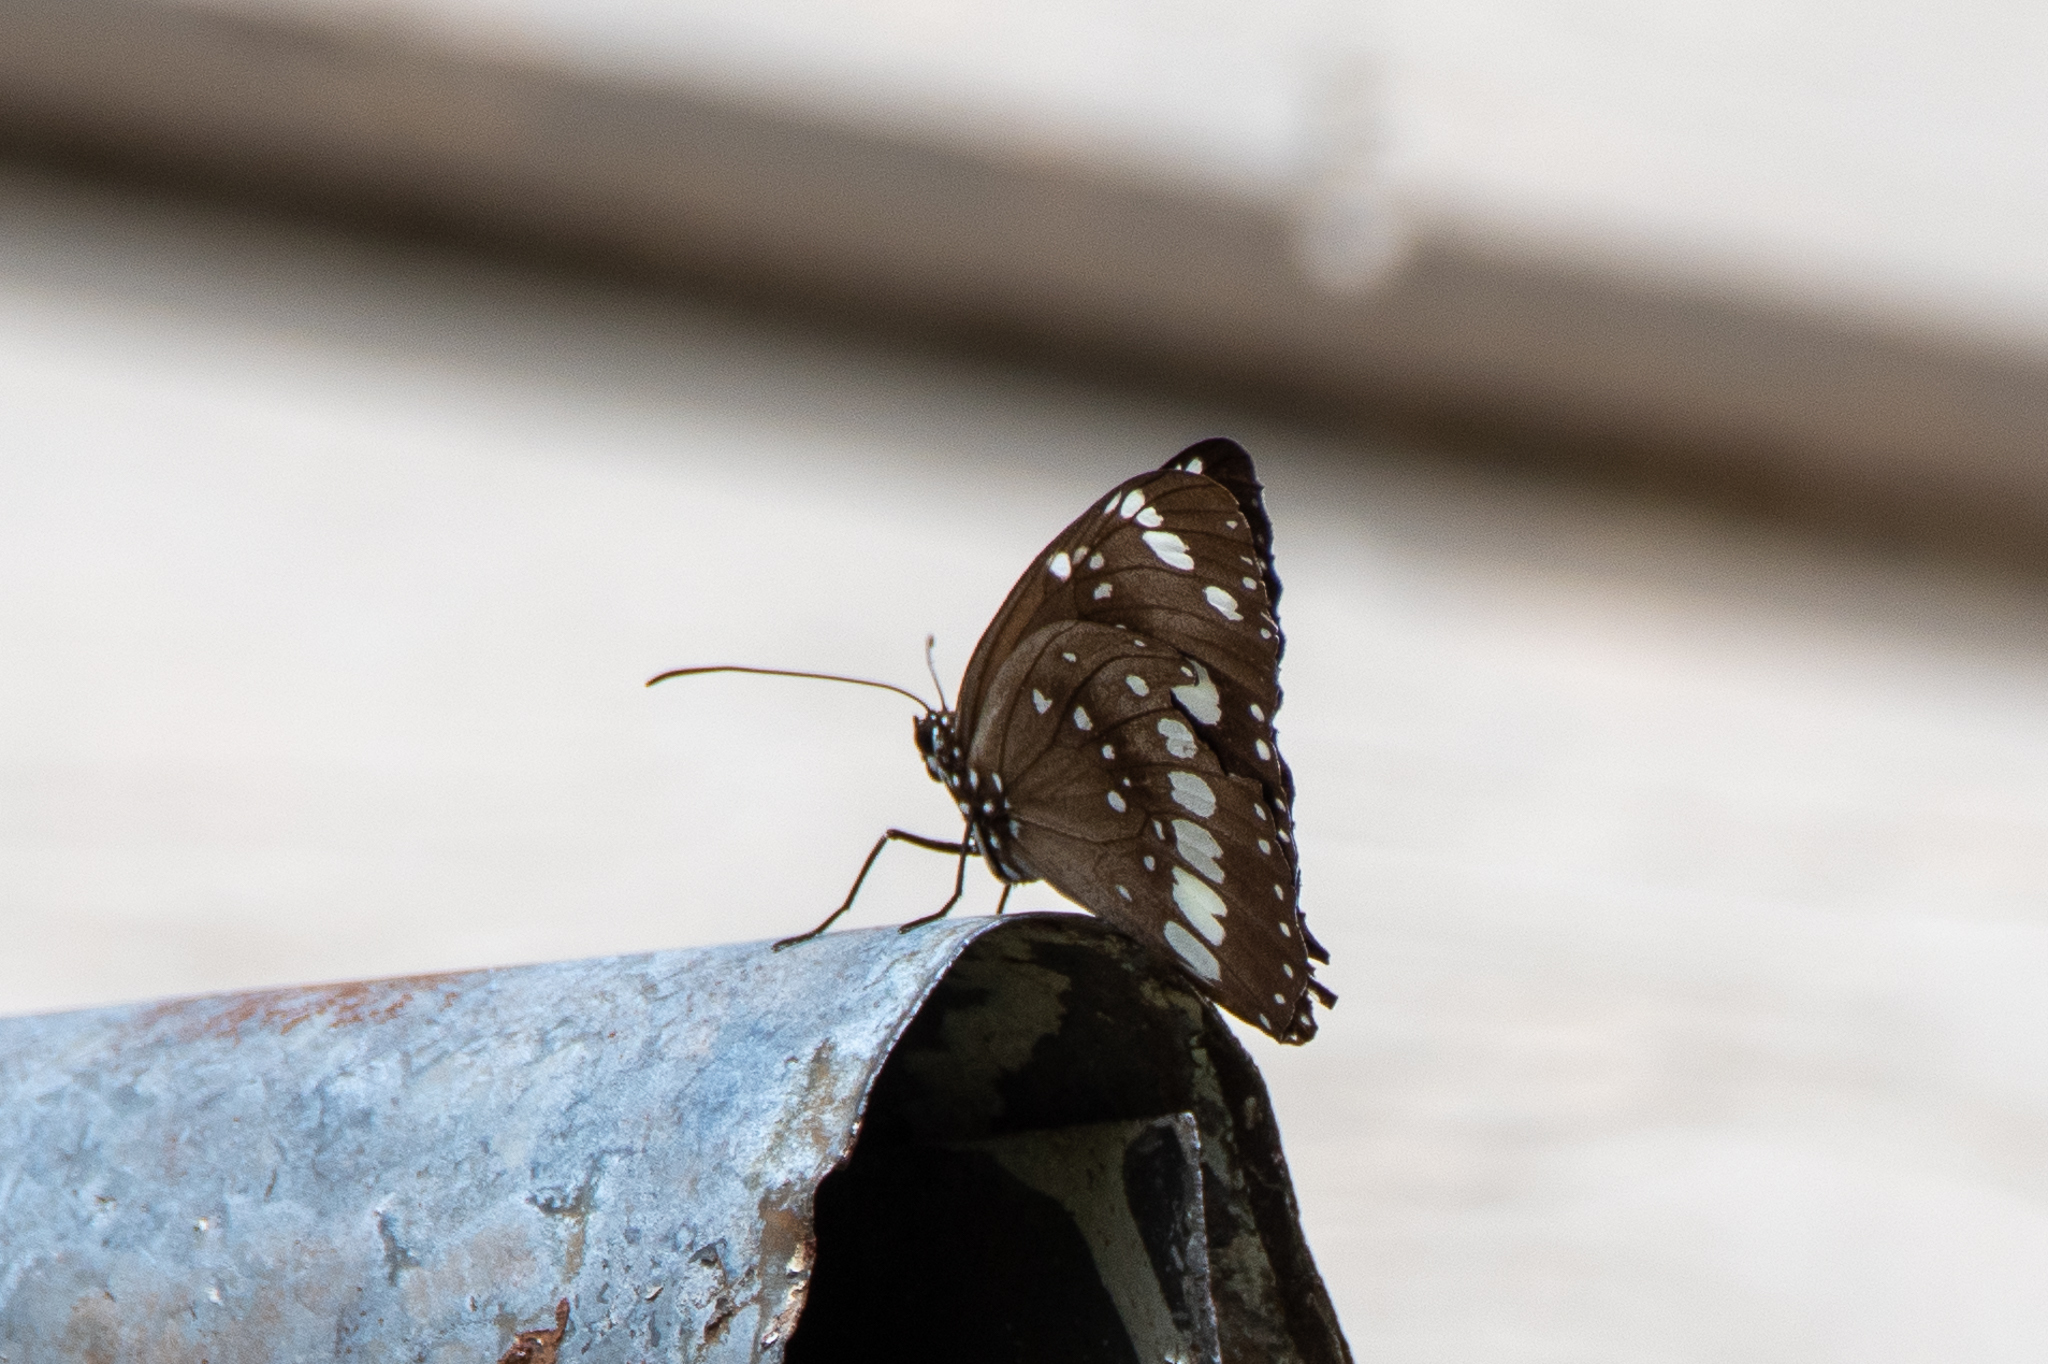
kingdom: Animalia
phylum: Arthropoda
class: Insecta
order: Lepidoptera
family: Nymphalidae
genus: Euploea
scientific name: Euploea core
